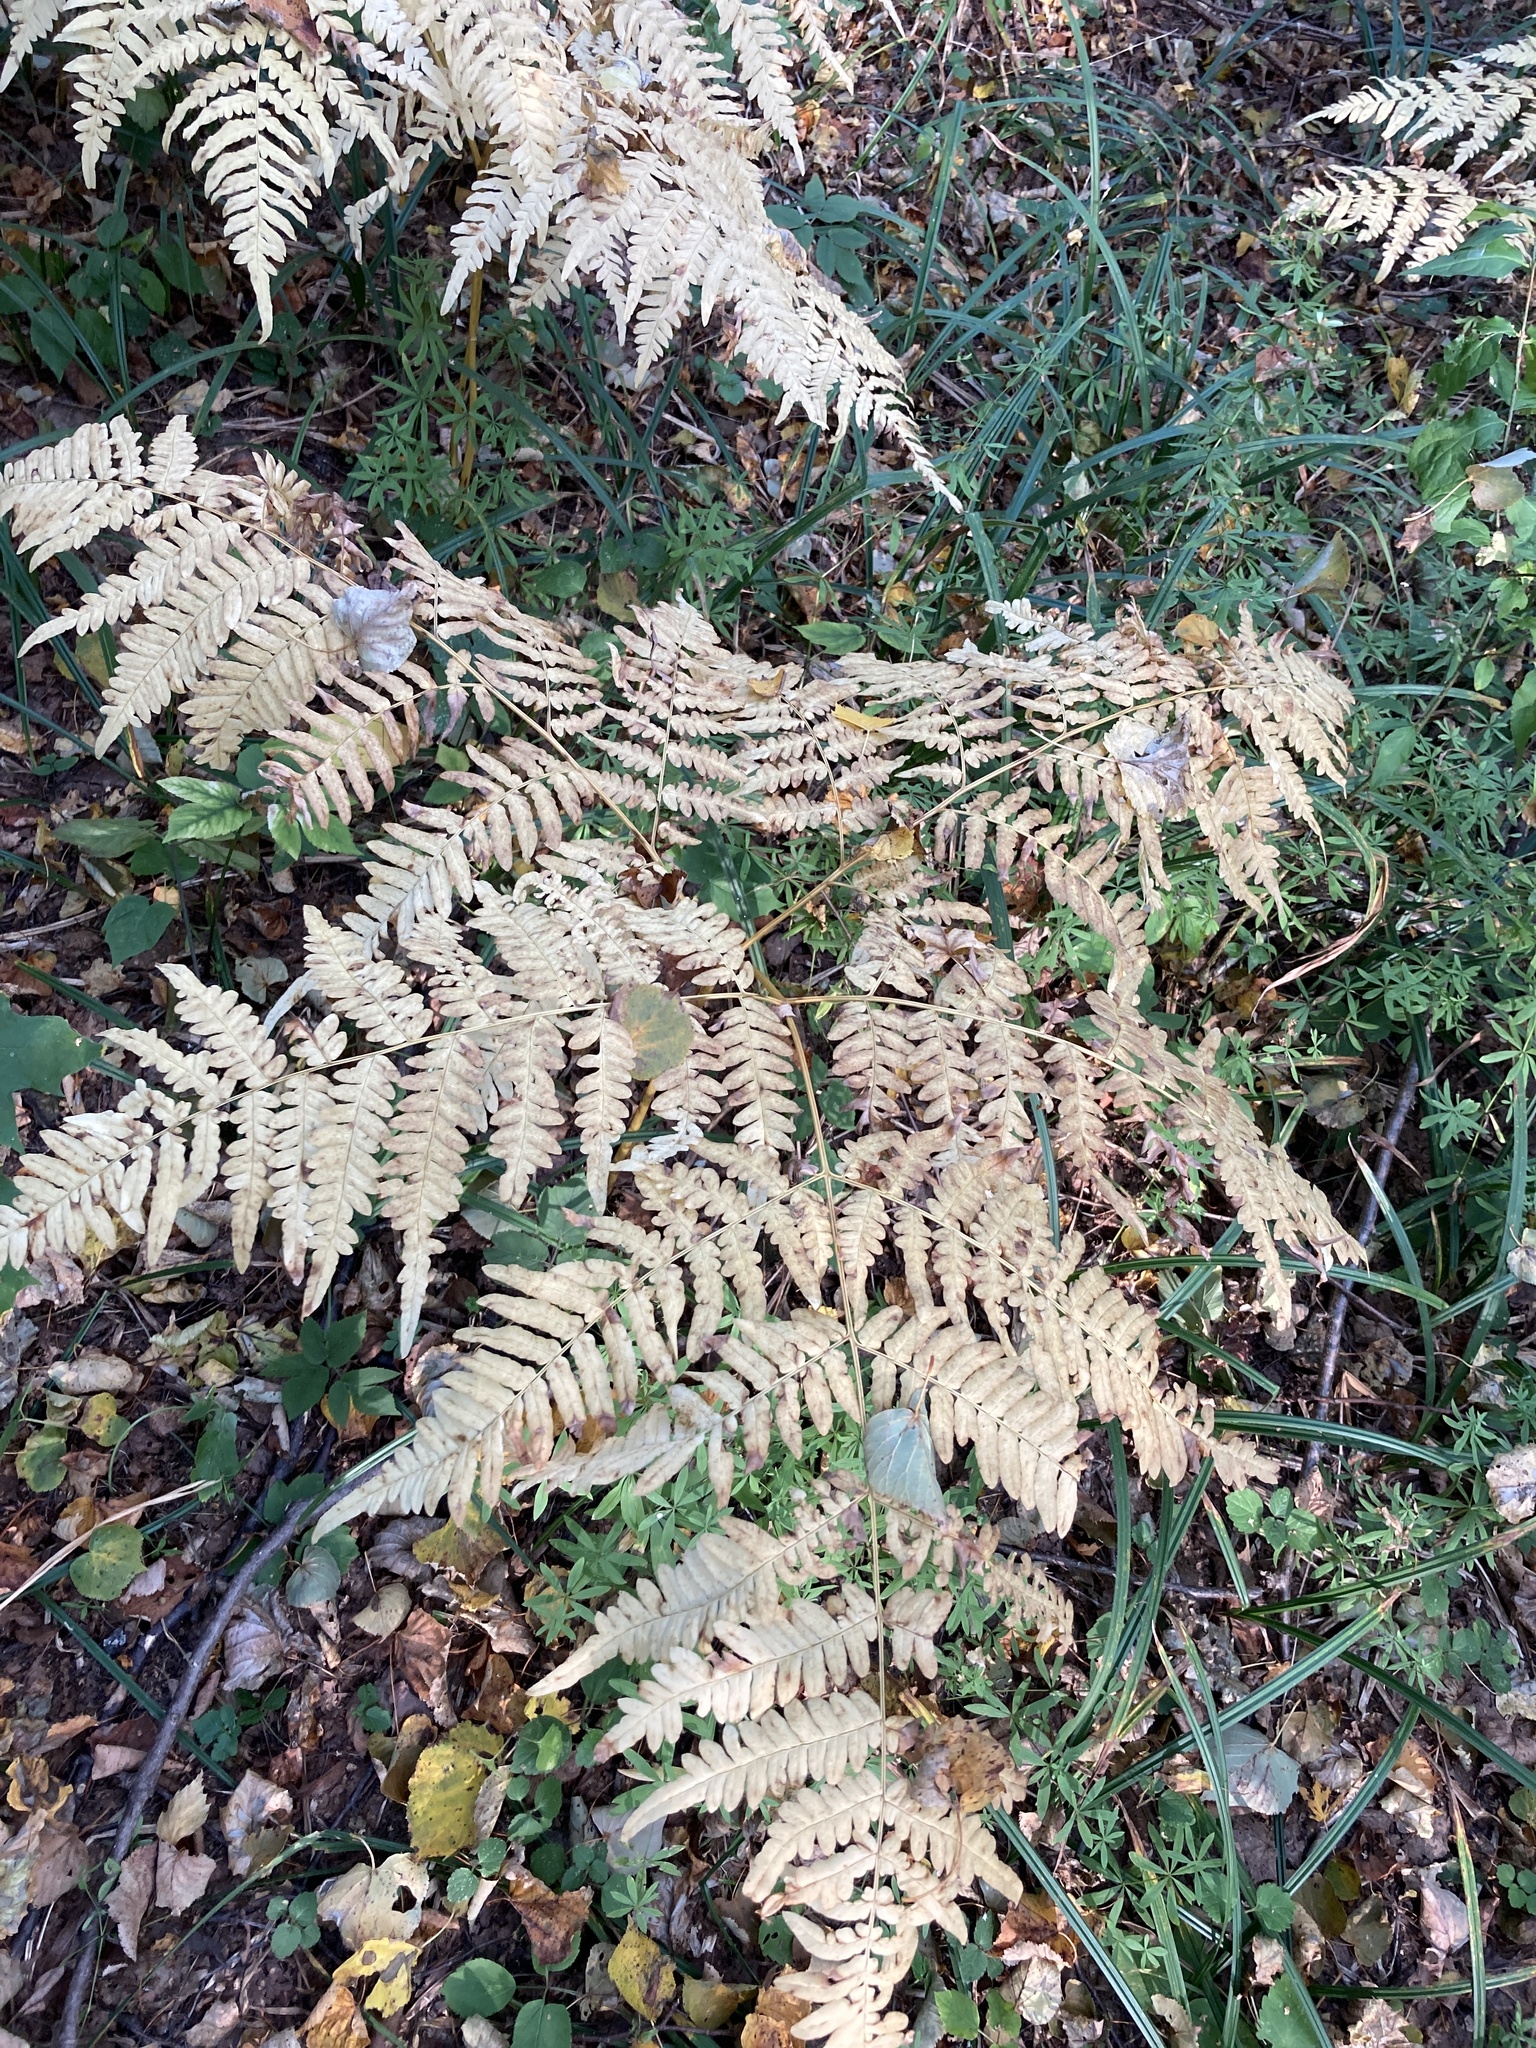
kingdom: Plantae
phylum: Tracheophyta
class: Polypodiopsida
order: Polypodiales
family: Dennstaedtiaceae
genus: Pteridium
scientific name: Pteridium aquilinum
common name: Bracken
